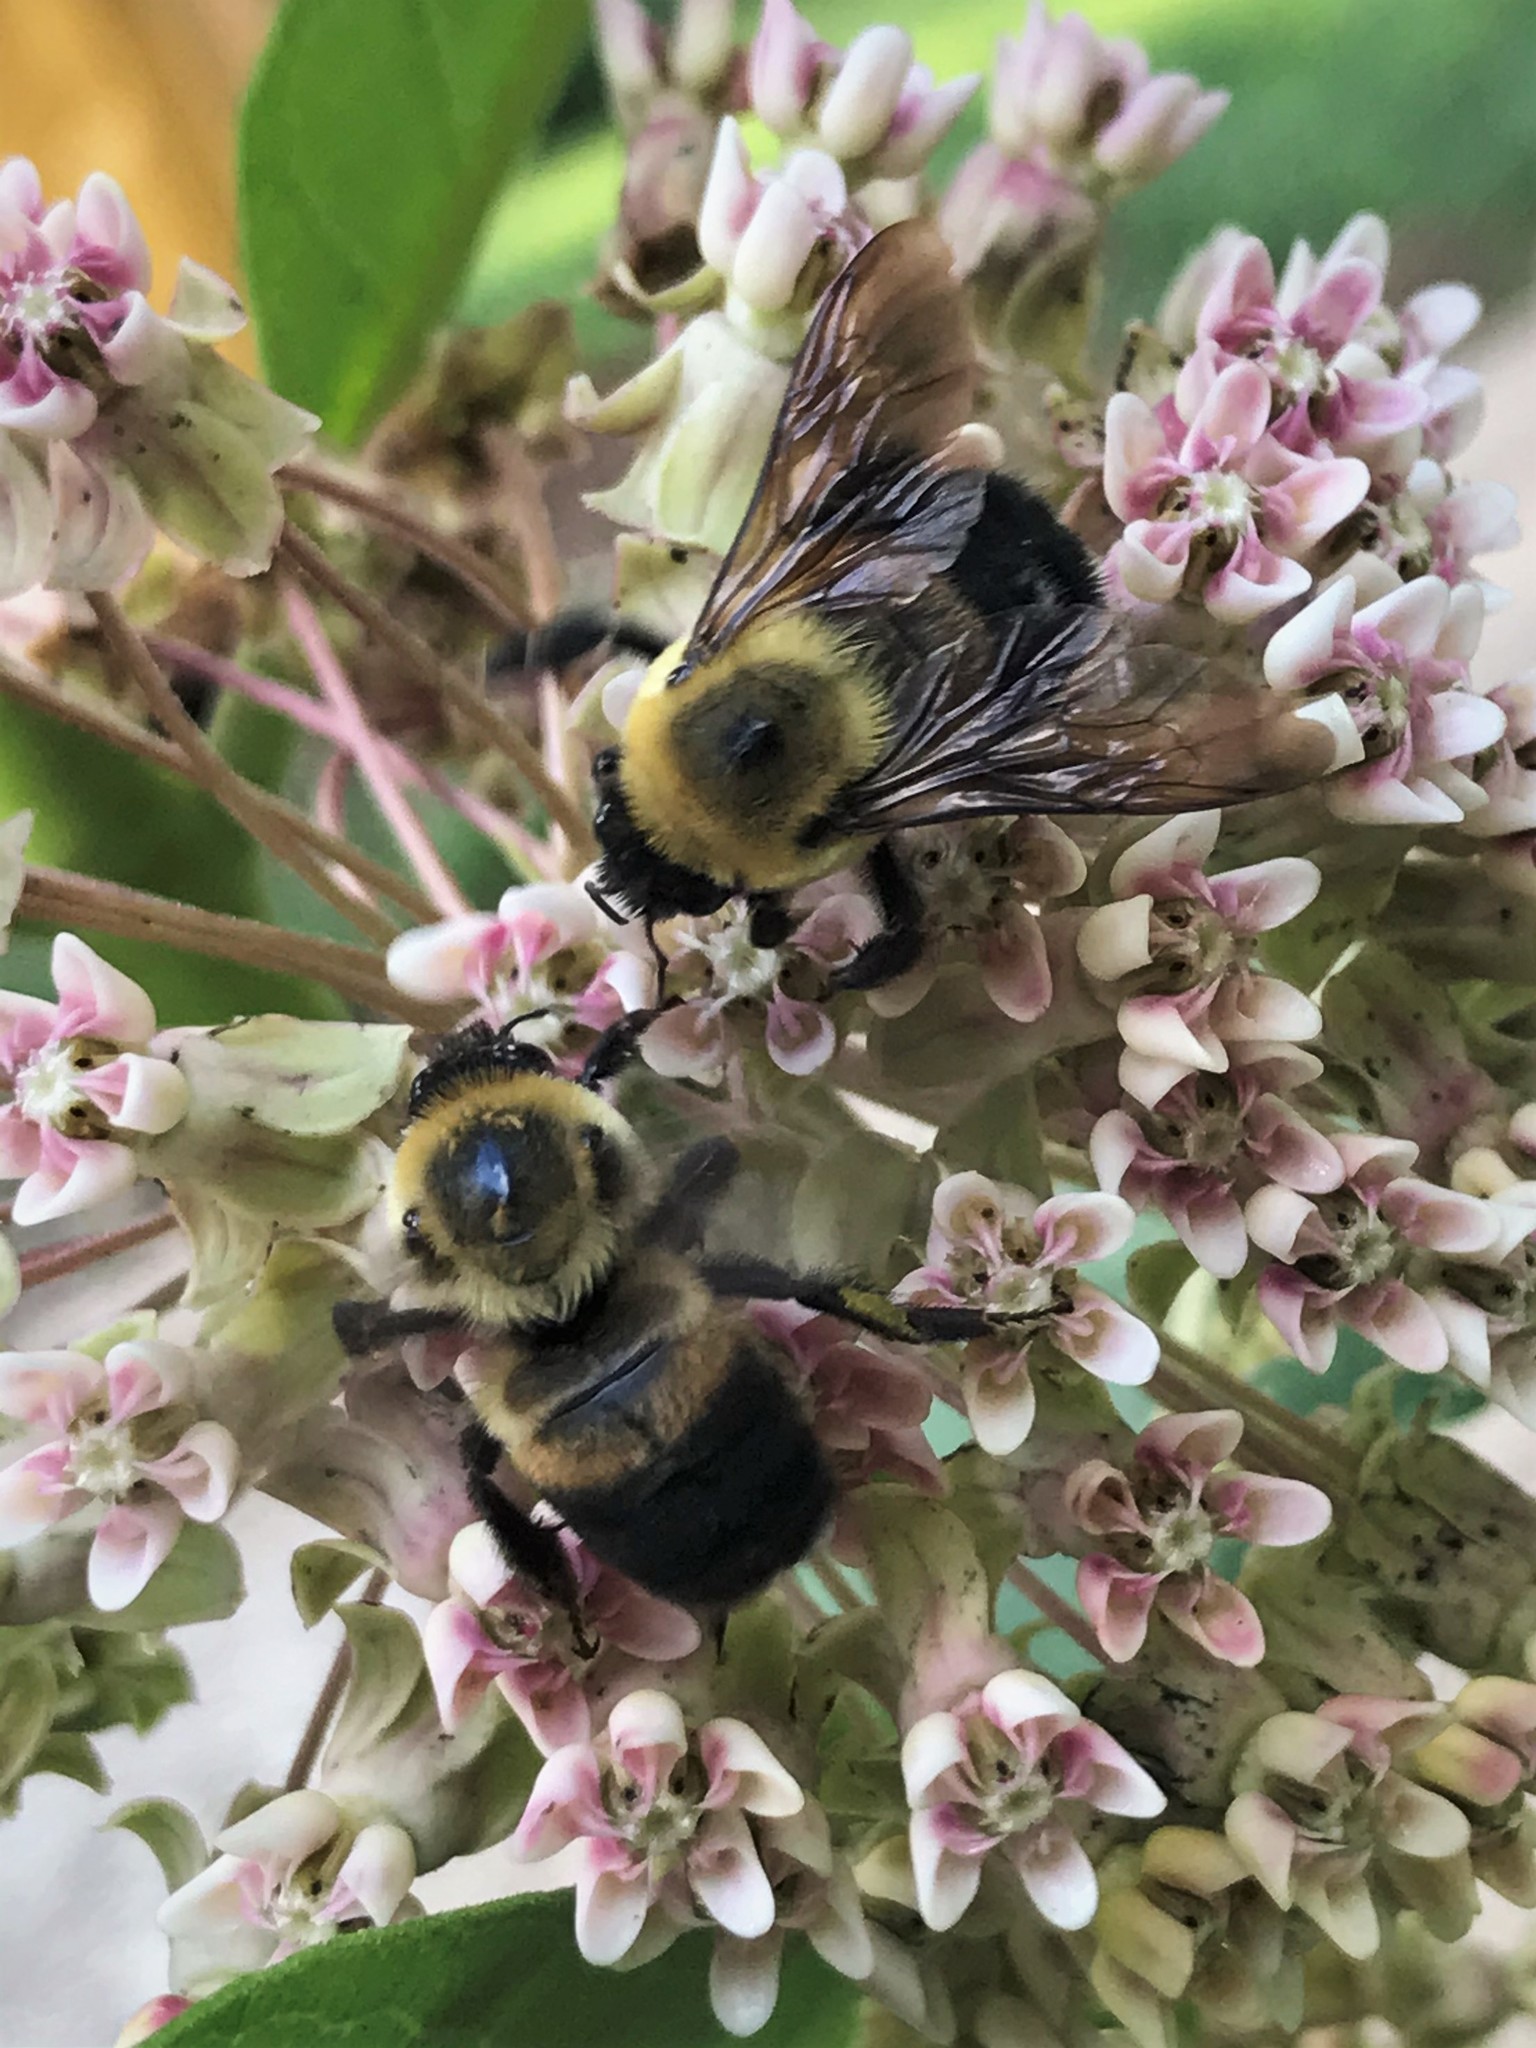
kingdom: Animalia
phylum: Arthropoda
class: Insecta
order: Hymenoptera
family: Apidae
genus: Bombus
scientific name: Bombus griseocollis
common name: Brown-belted bumble bee
